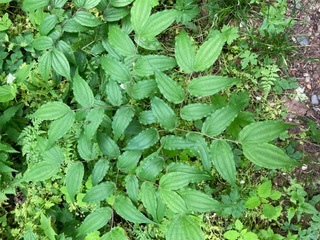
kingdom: Plantae
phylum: Tracheophyta
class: Liliopsida
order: Liliales
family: Liliaceae
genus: Prosartes
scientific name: Prosartes lanuginosa
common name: Hairy mandarin
